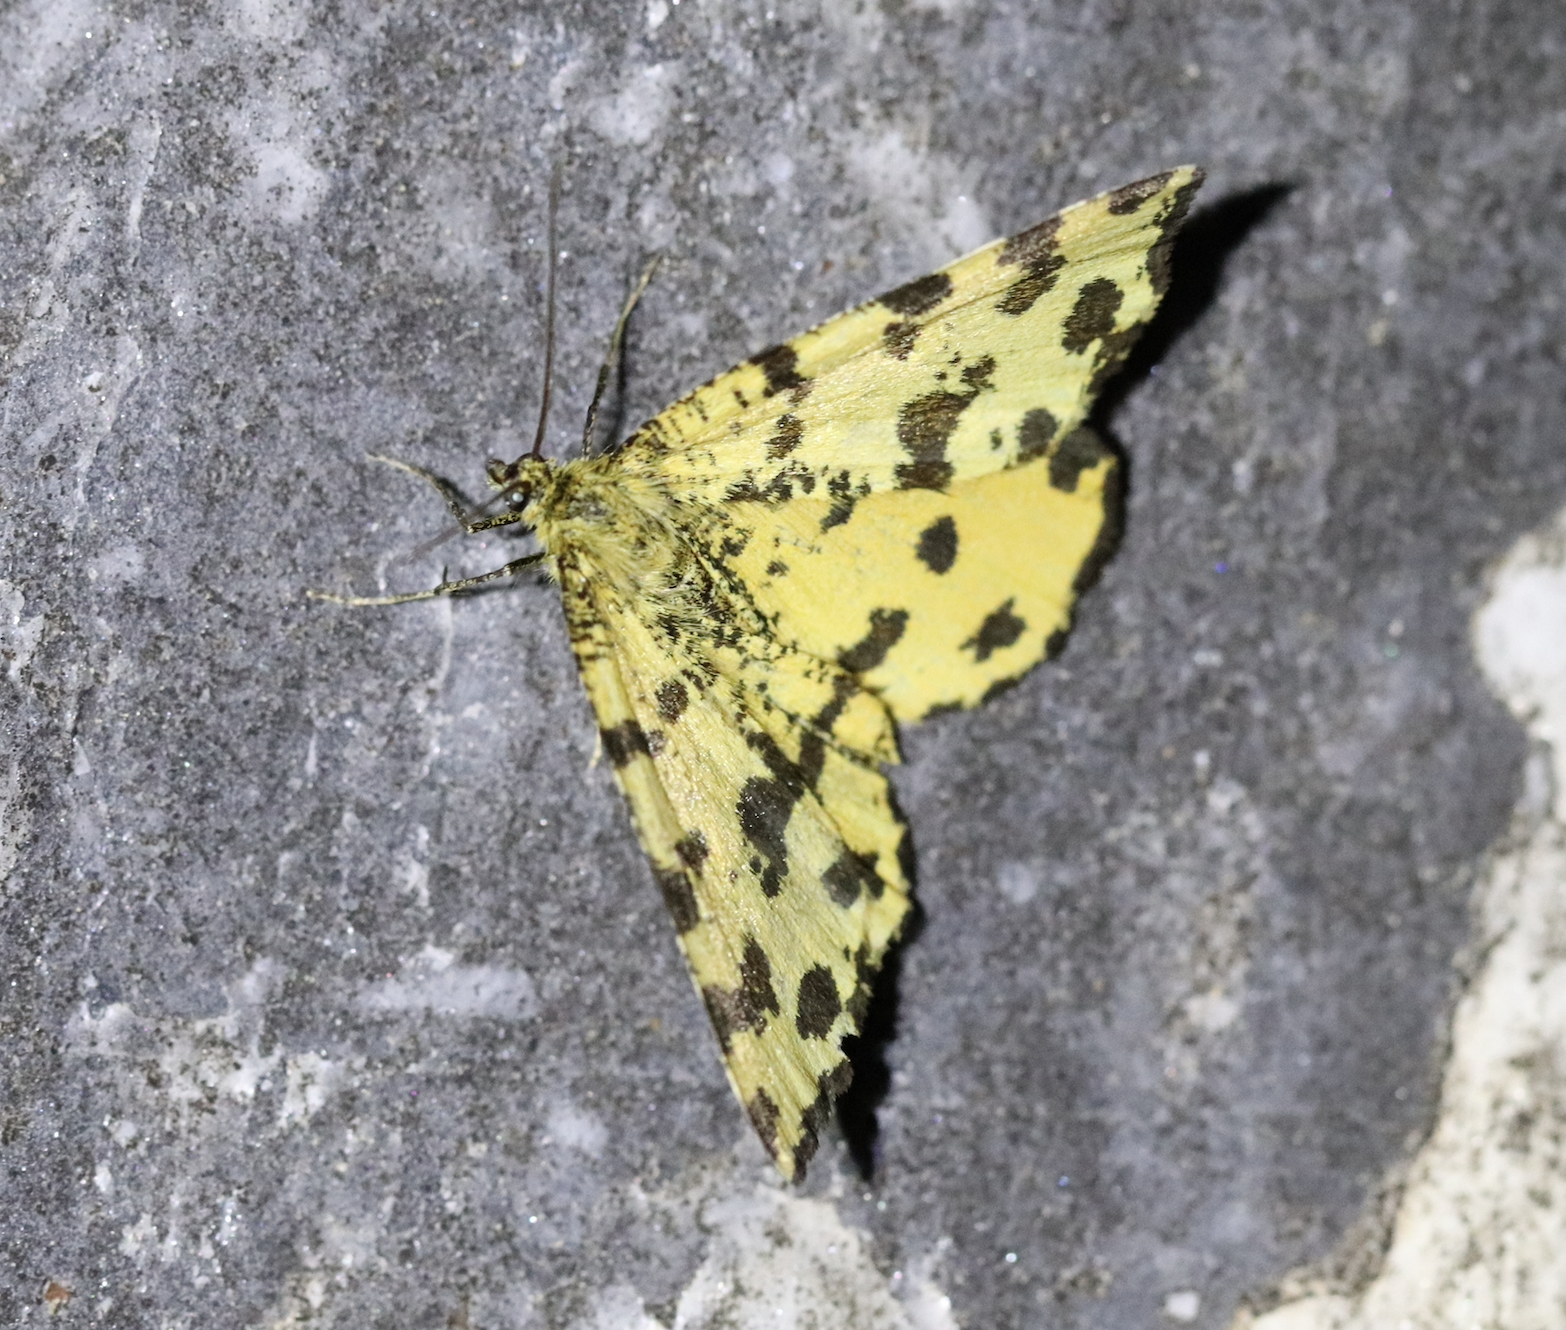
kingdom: Animalia
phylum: Arthropoda
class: Insecta
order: Lepidoptera
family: Geometridae
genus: Pseudopanthera
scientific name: Pseudopanthera macularia
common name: Speckled yellow
